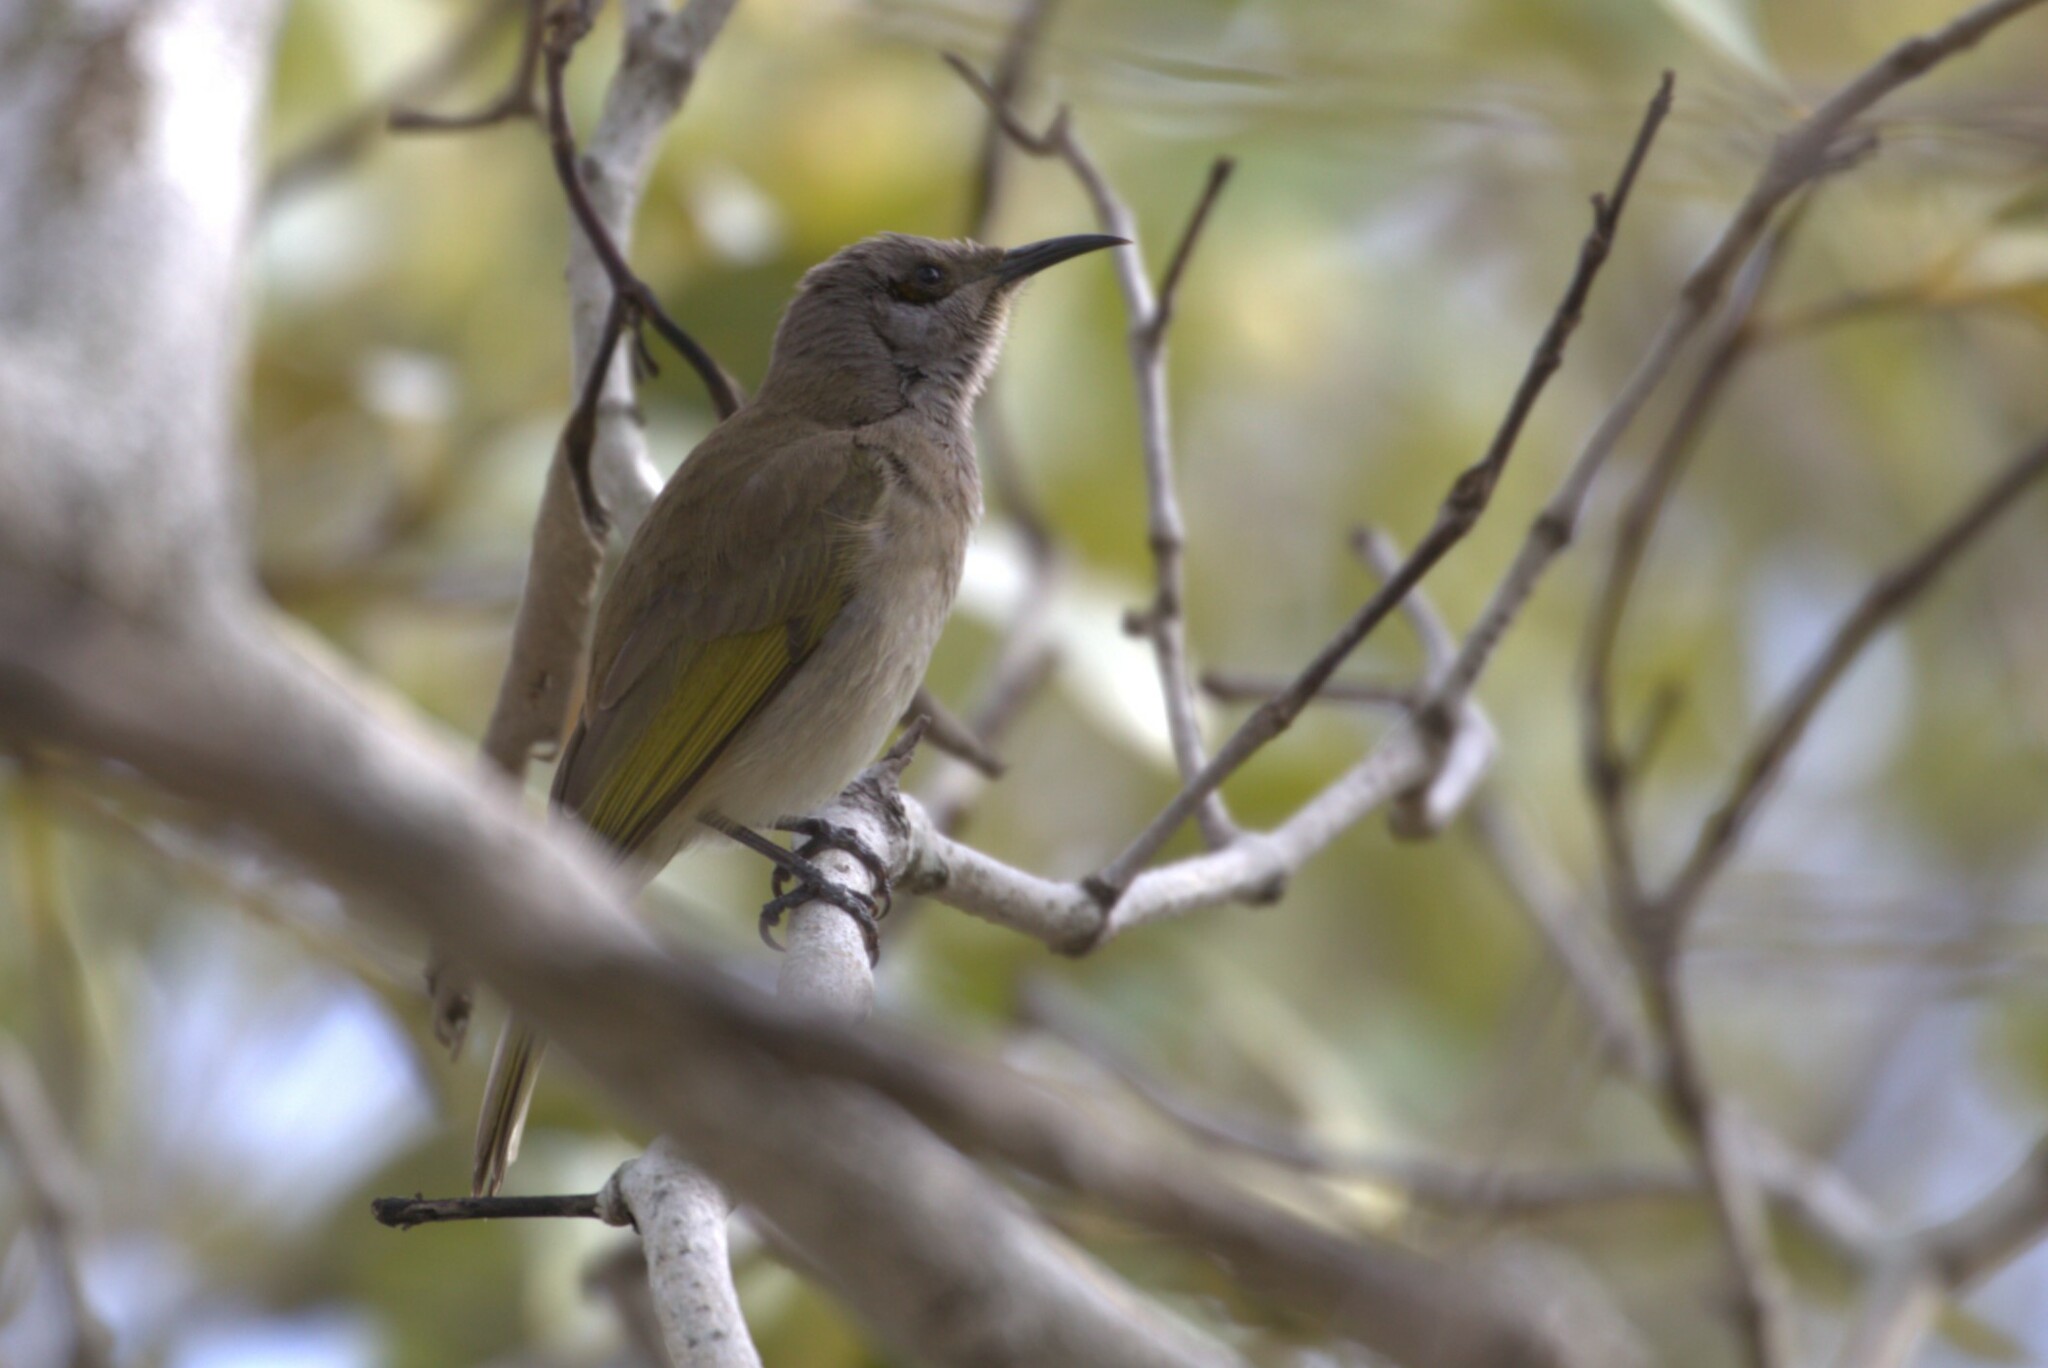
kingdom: Animalia
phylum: Chordata
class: Aves
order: Passeriformes
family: Meliphagidae
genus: Lichmera
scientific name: Lichmera indistincta
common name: Brown honeyeater
